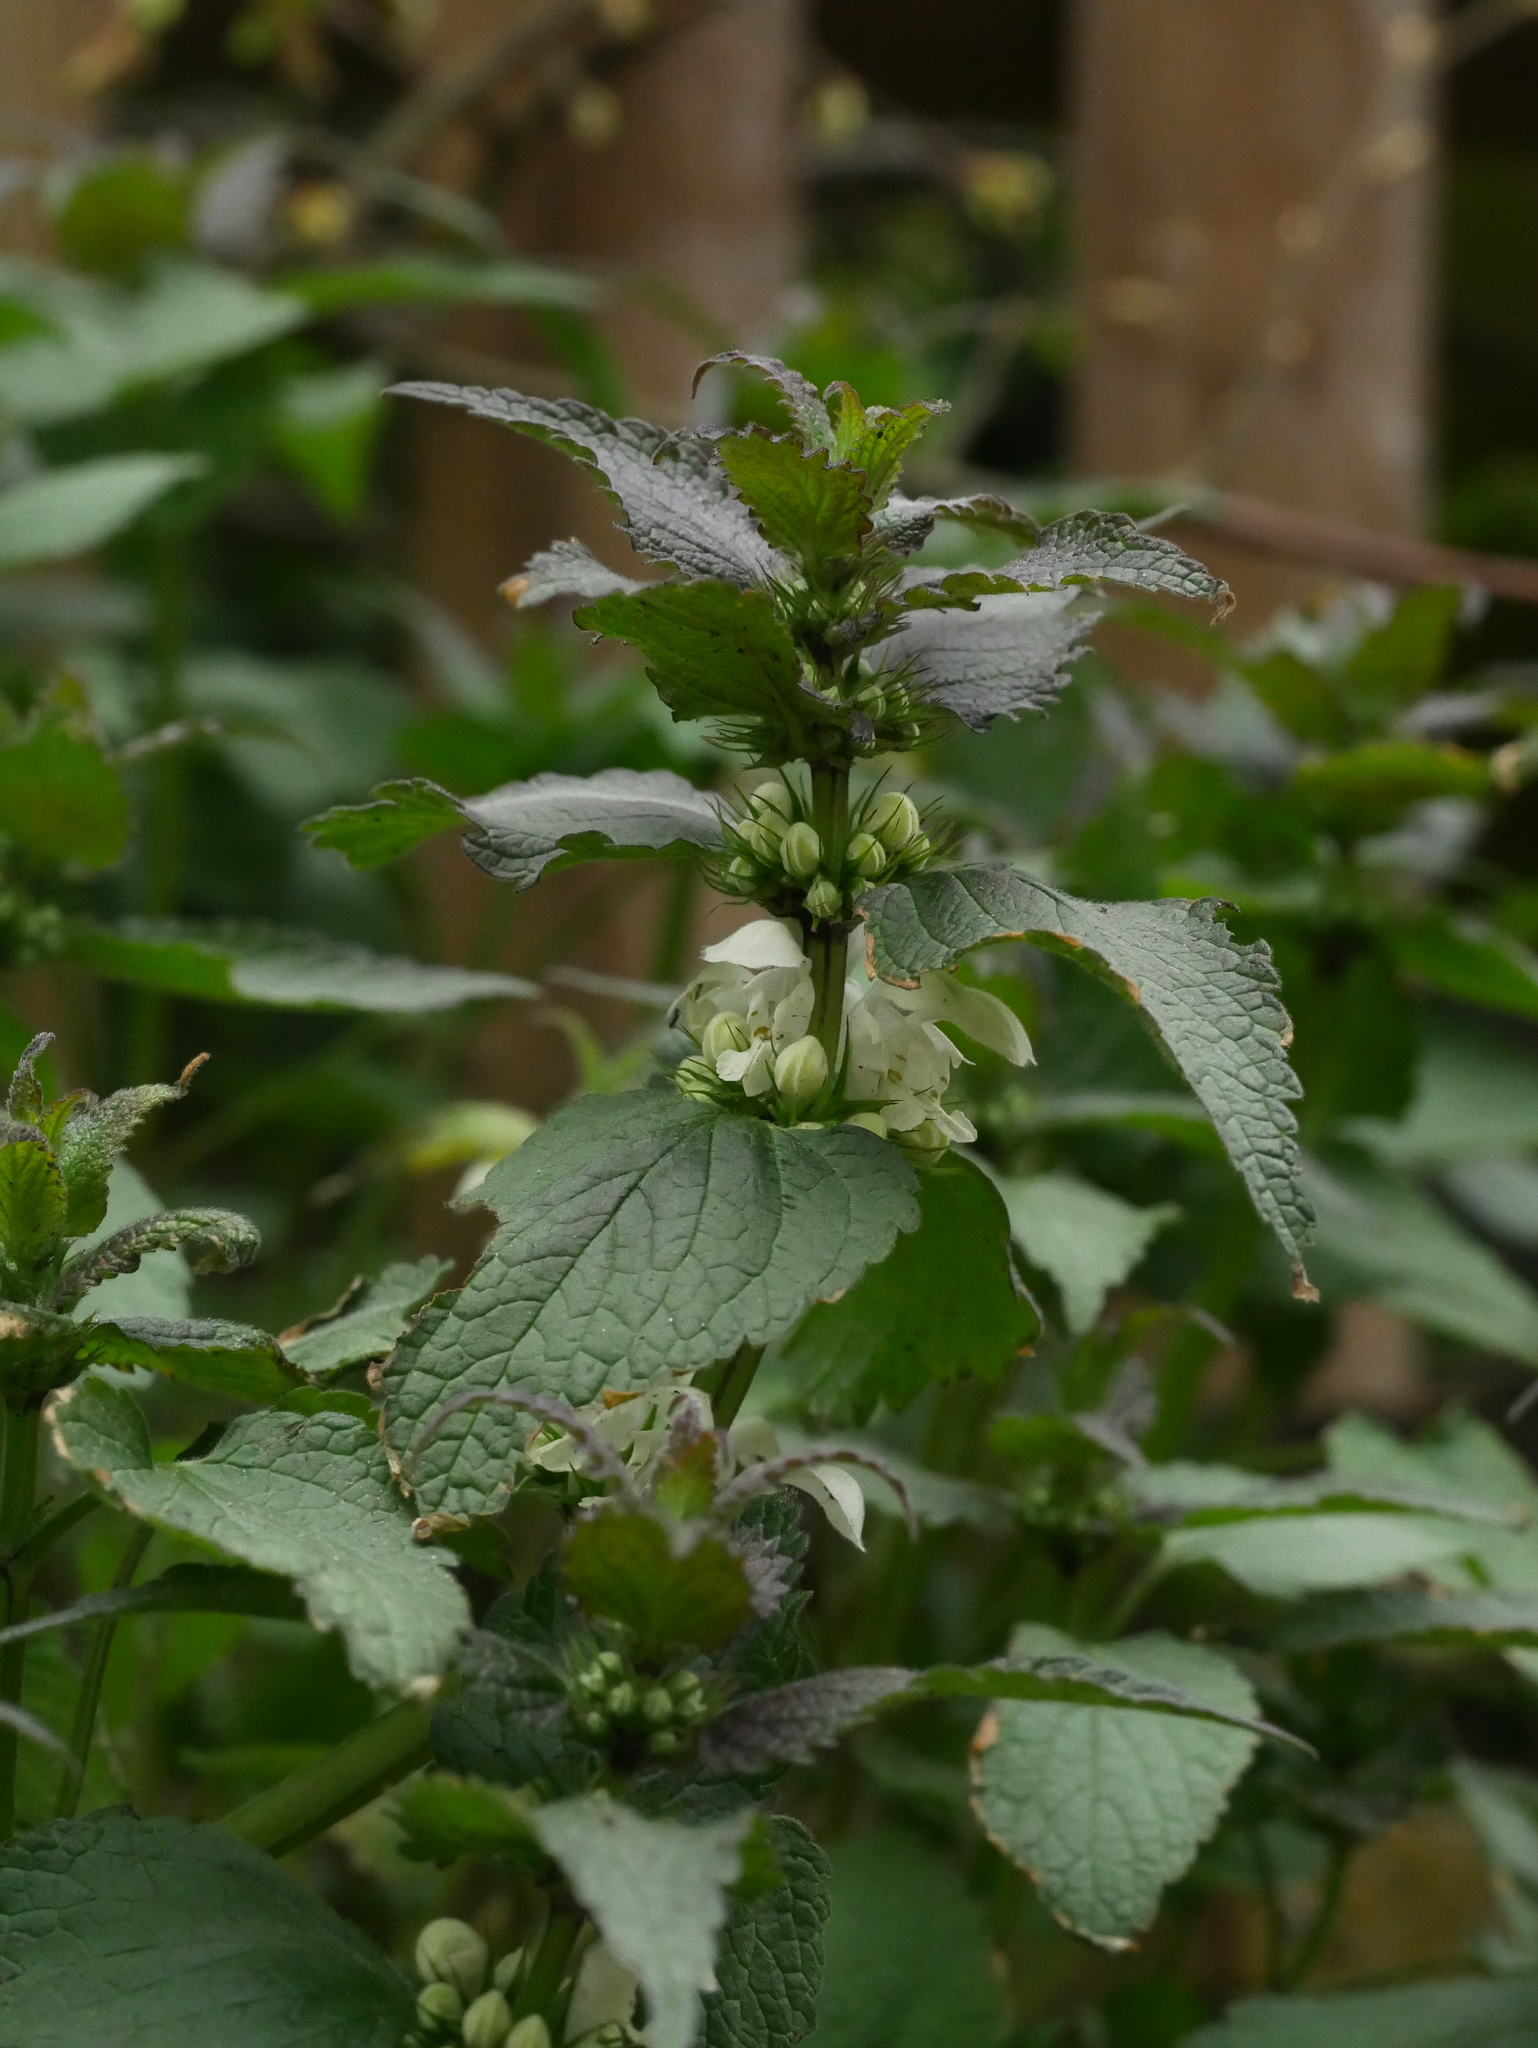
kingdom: Plantae
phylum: Tracheophyta
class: Magnoliopsida
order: Lamiales
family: Lamiaceae
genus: Lamium
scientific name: Lamium album
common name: White dead-nettle
